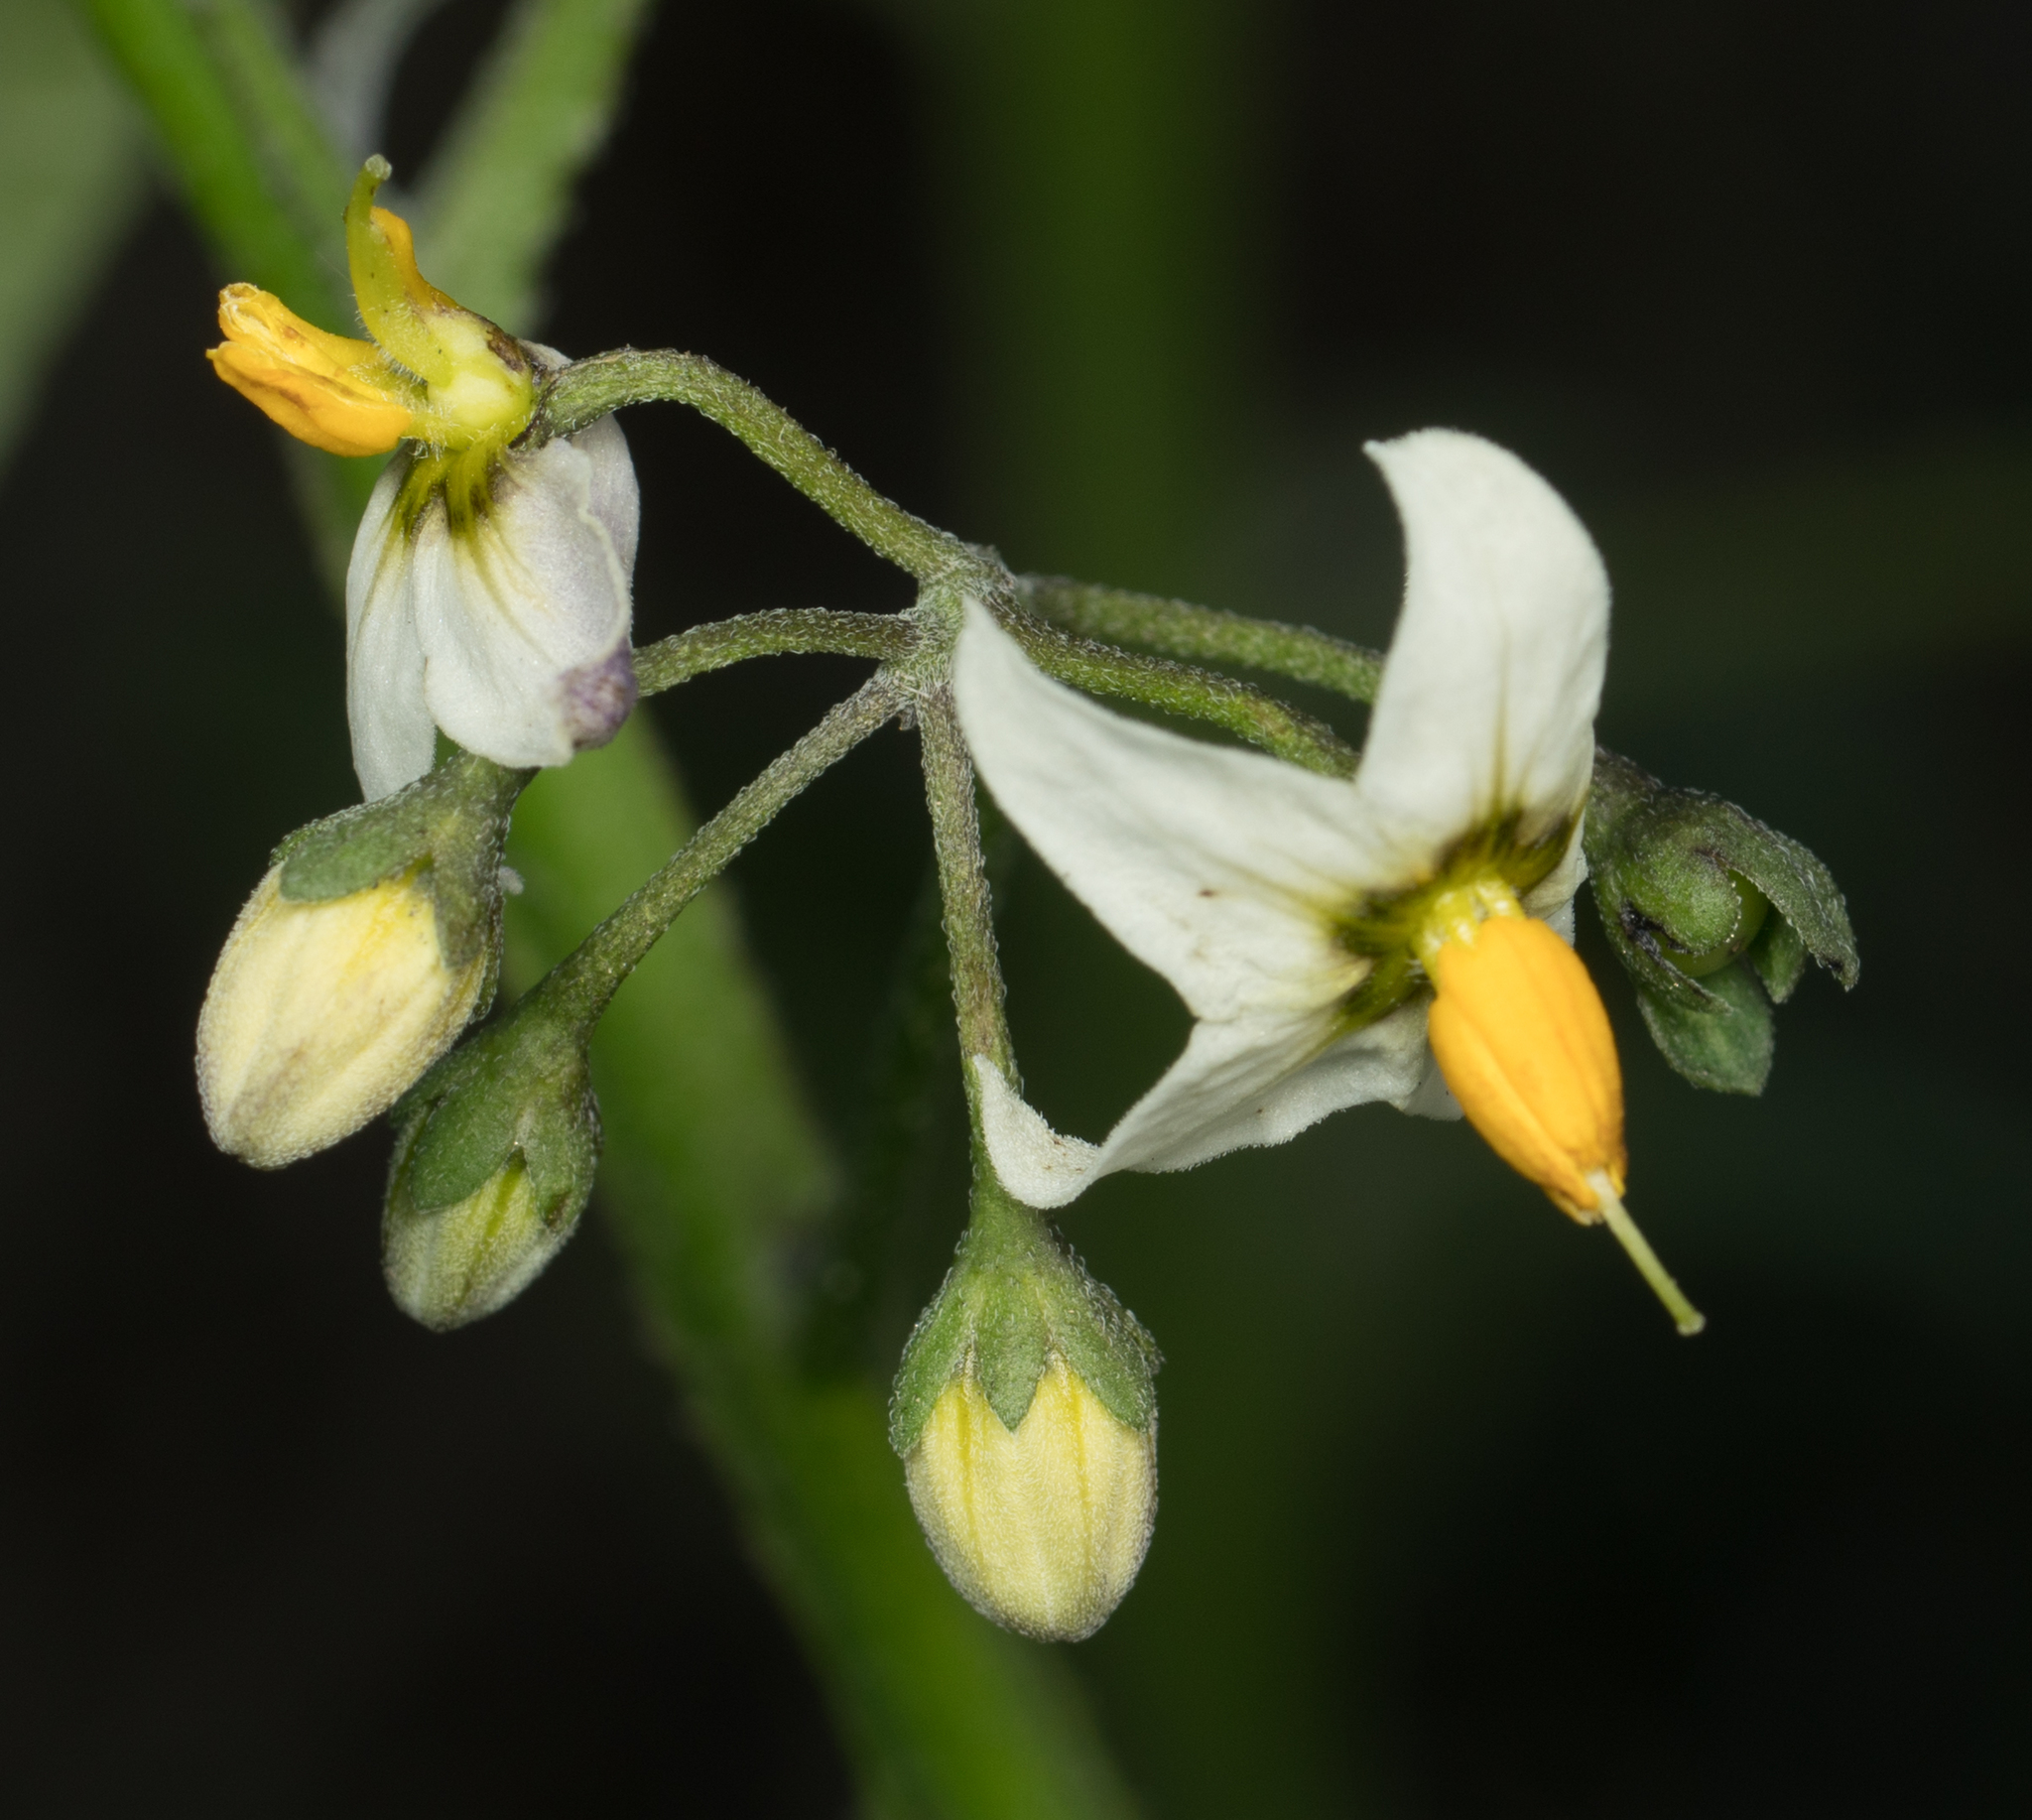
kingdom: Plantae
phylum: Tracheophyta
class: Magnoliopsida
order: Solanales
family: Solanaceae
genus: Solanum
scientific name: Solanum douglasii
